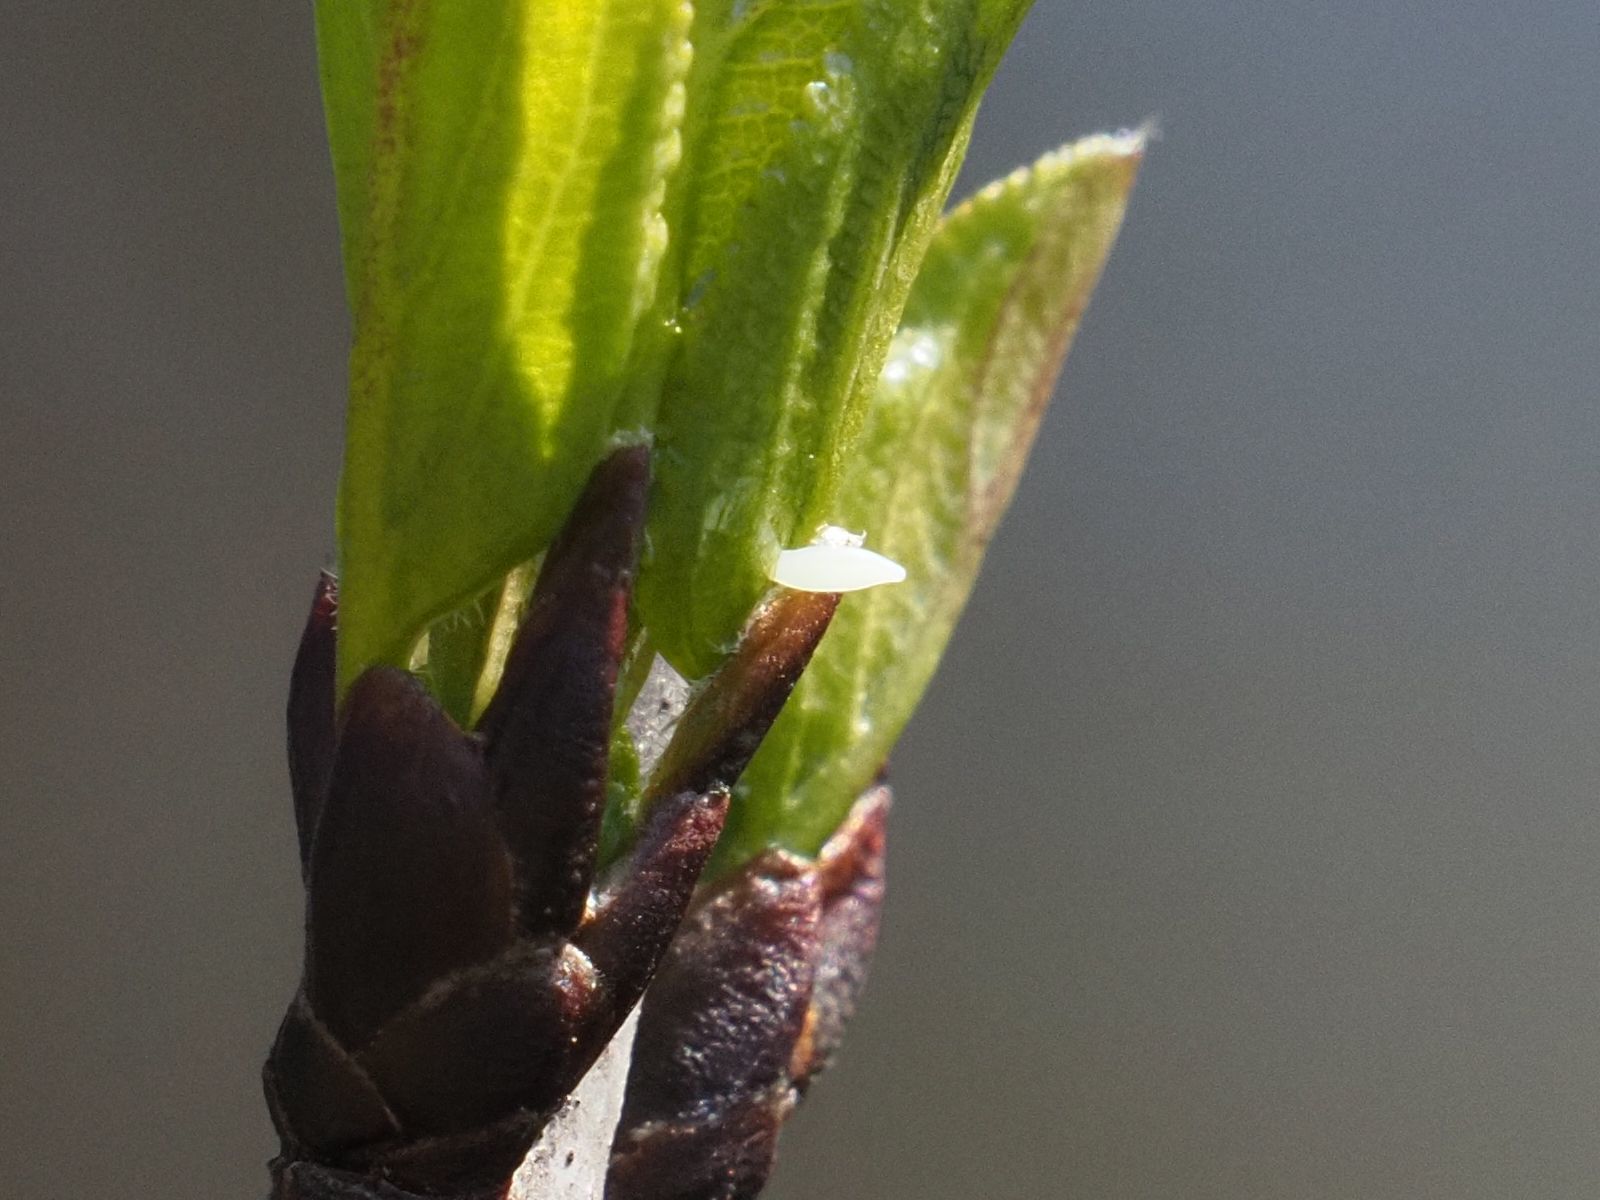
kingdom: Animalia
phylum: Arthropoda
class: Insecta
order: Lepidoptera
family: Pieridae
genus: Gonepteryx
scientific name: Gonepteryx rhamni
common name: Brimstone
